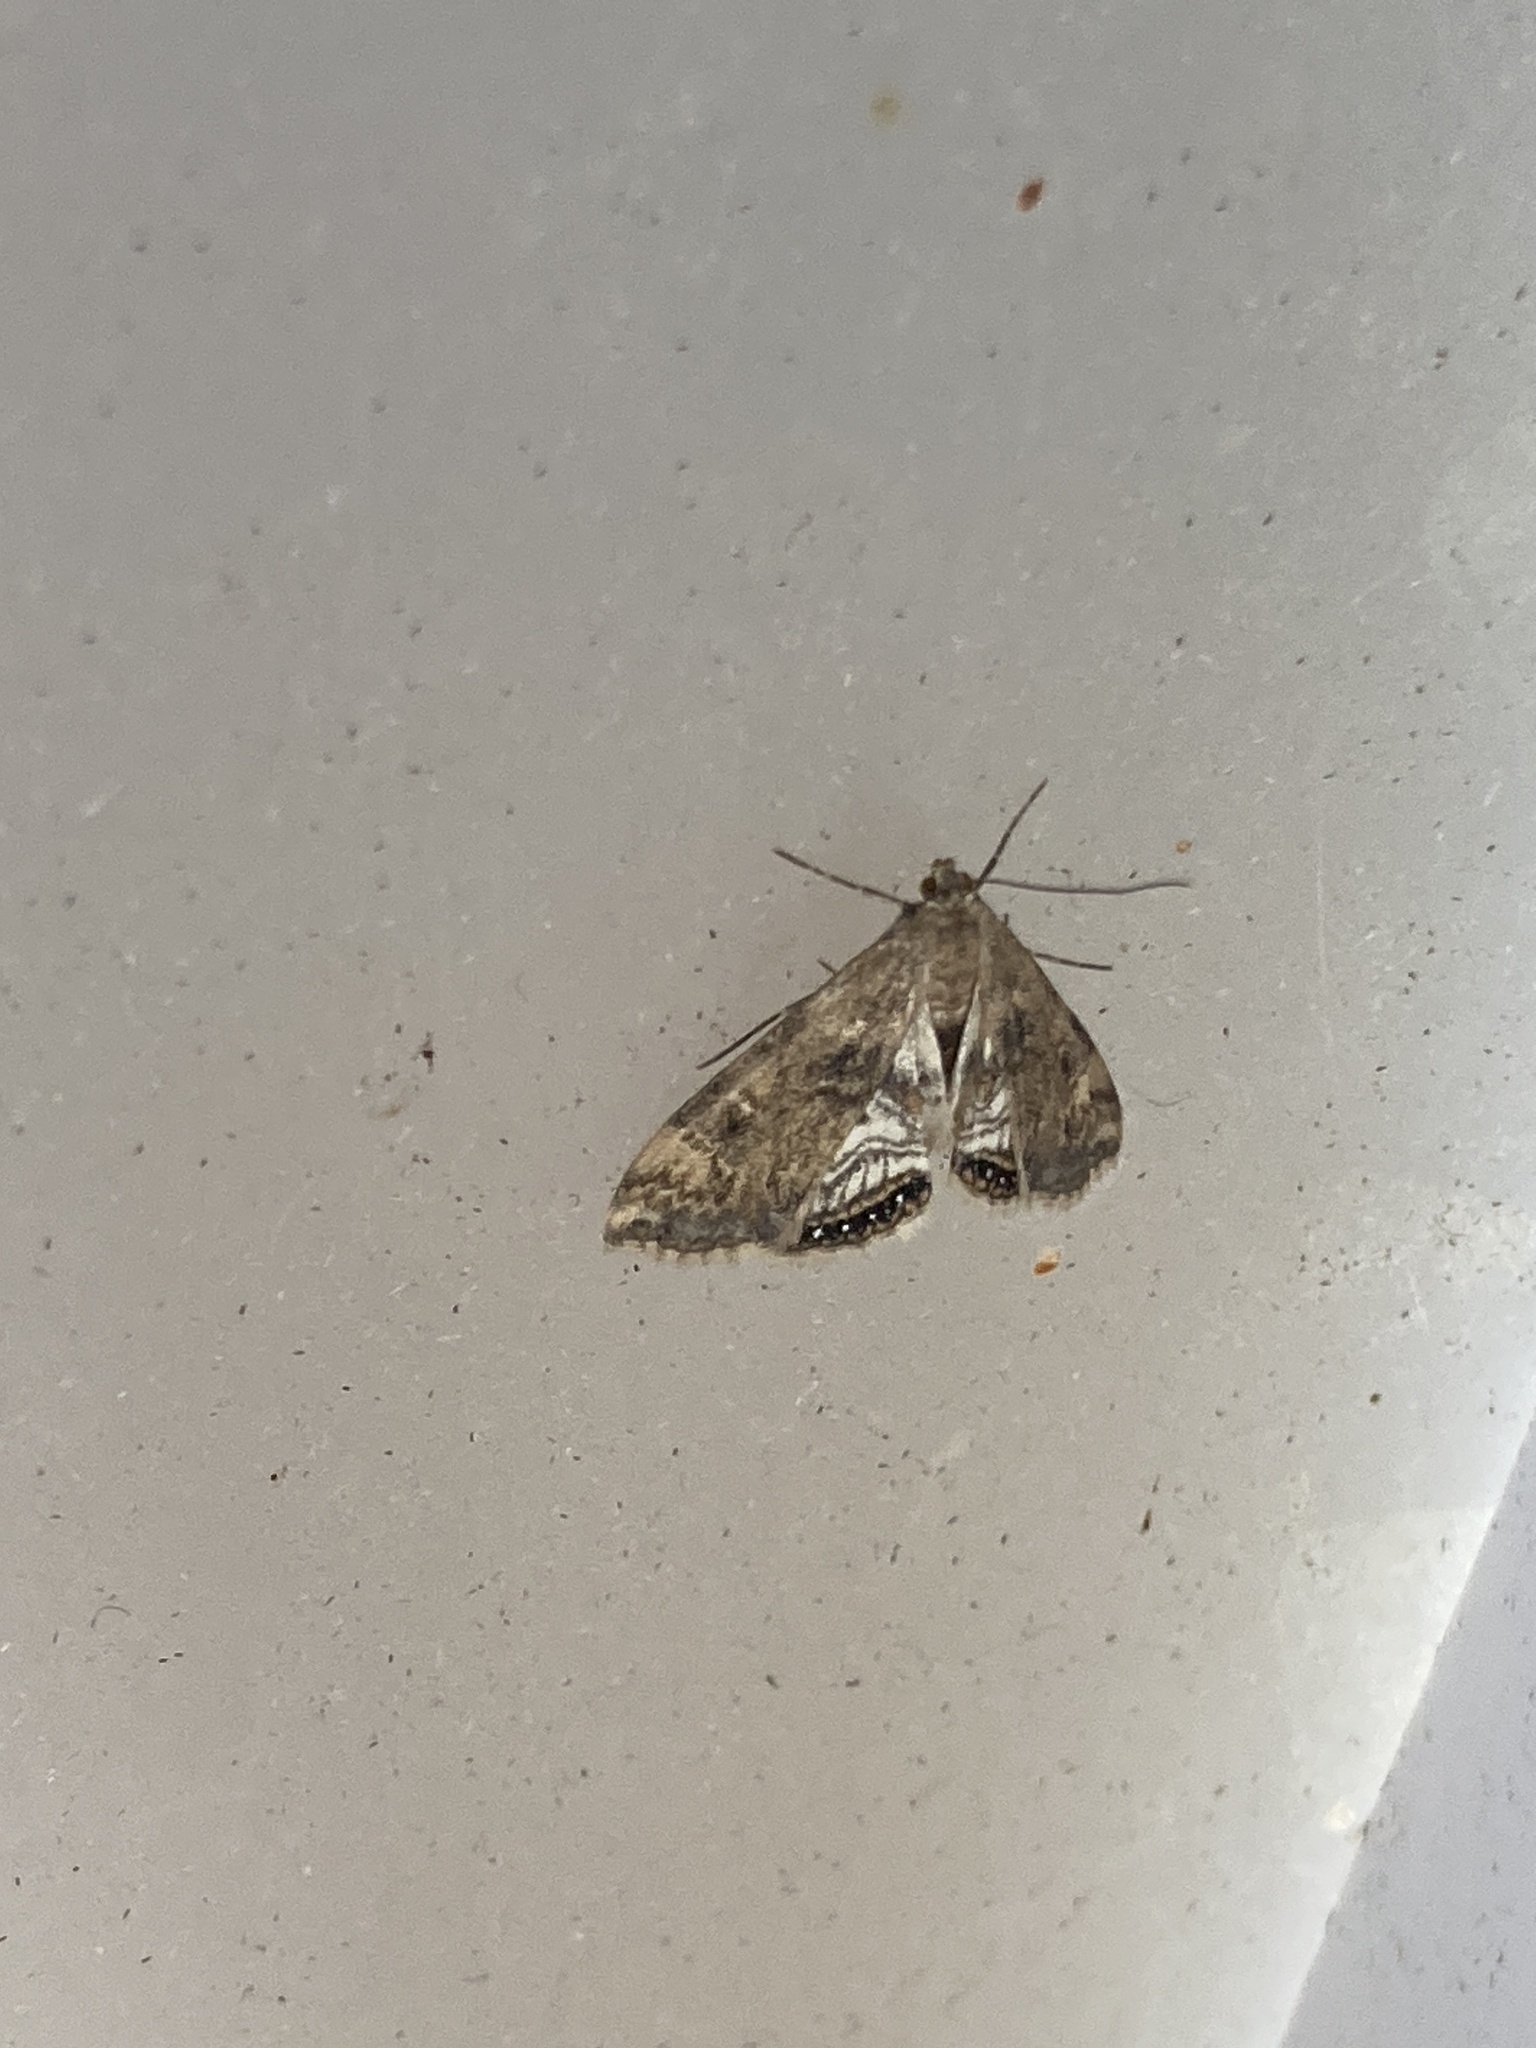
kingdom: Animalia
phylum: Arthropoda
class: Insecta
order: Lepidoptera
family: Crambidae
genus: Cataclysta
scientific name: Cataclysta lemnata
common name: Small china-mark
